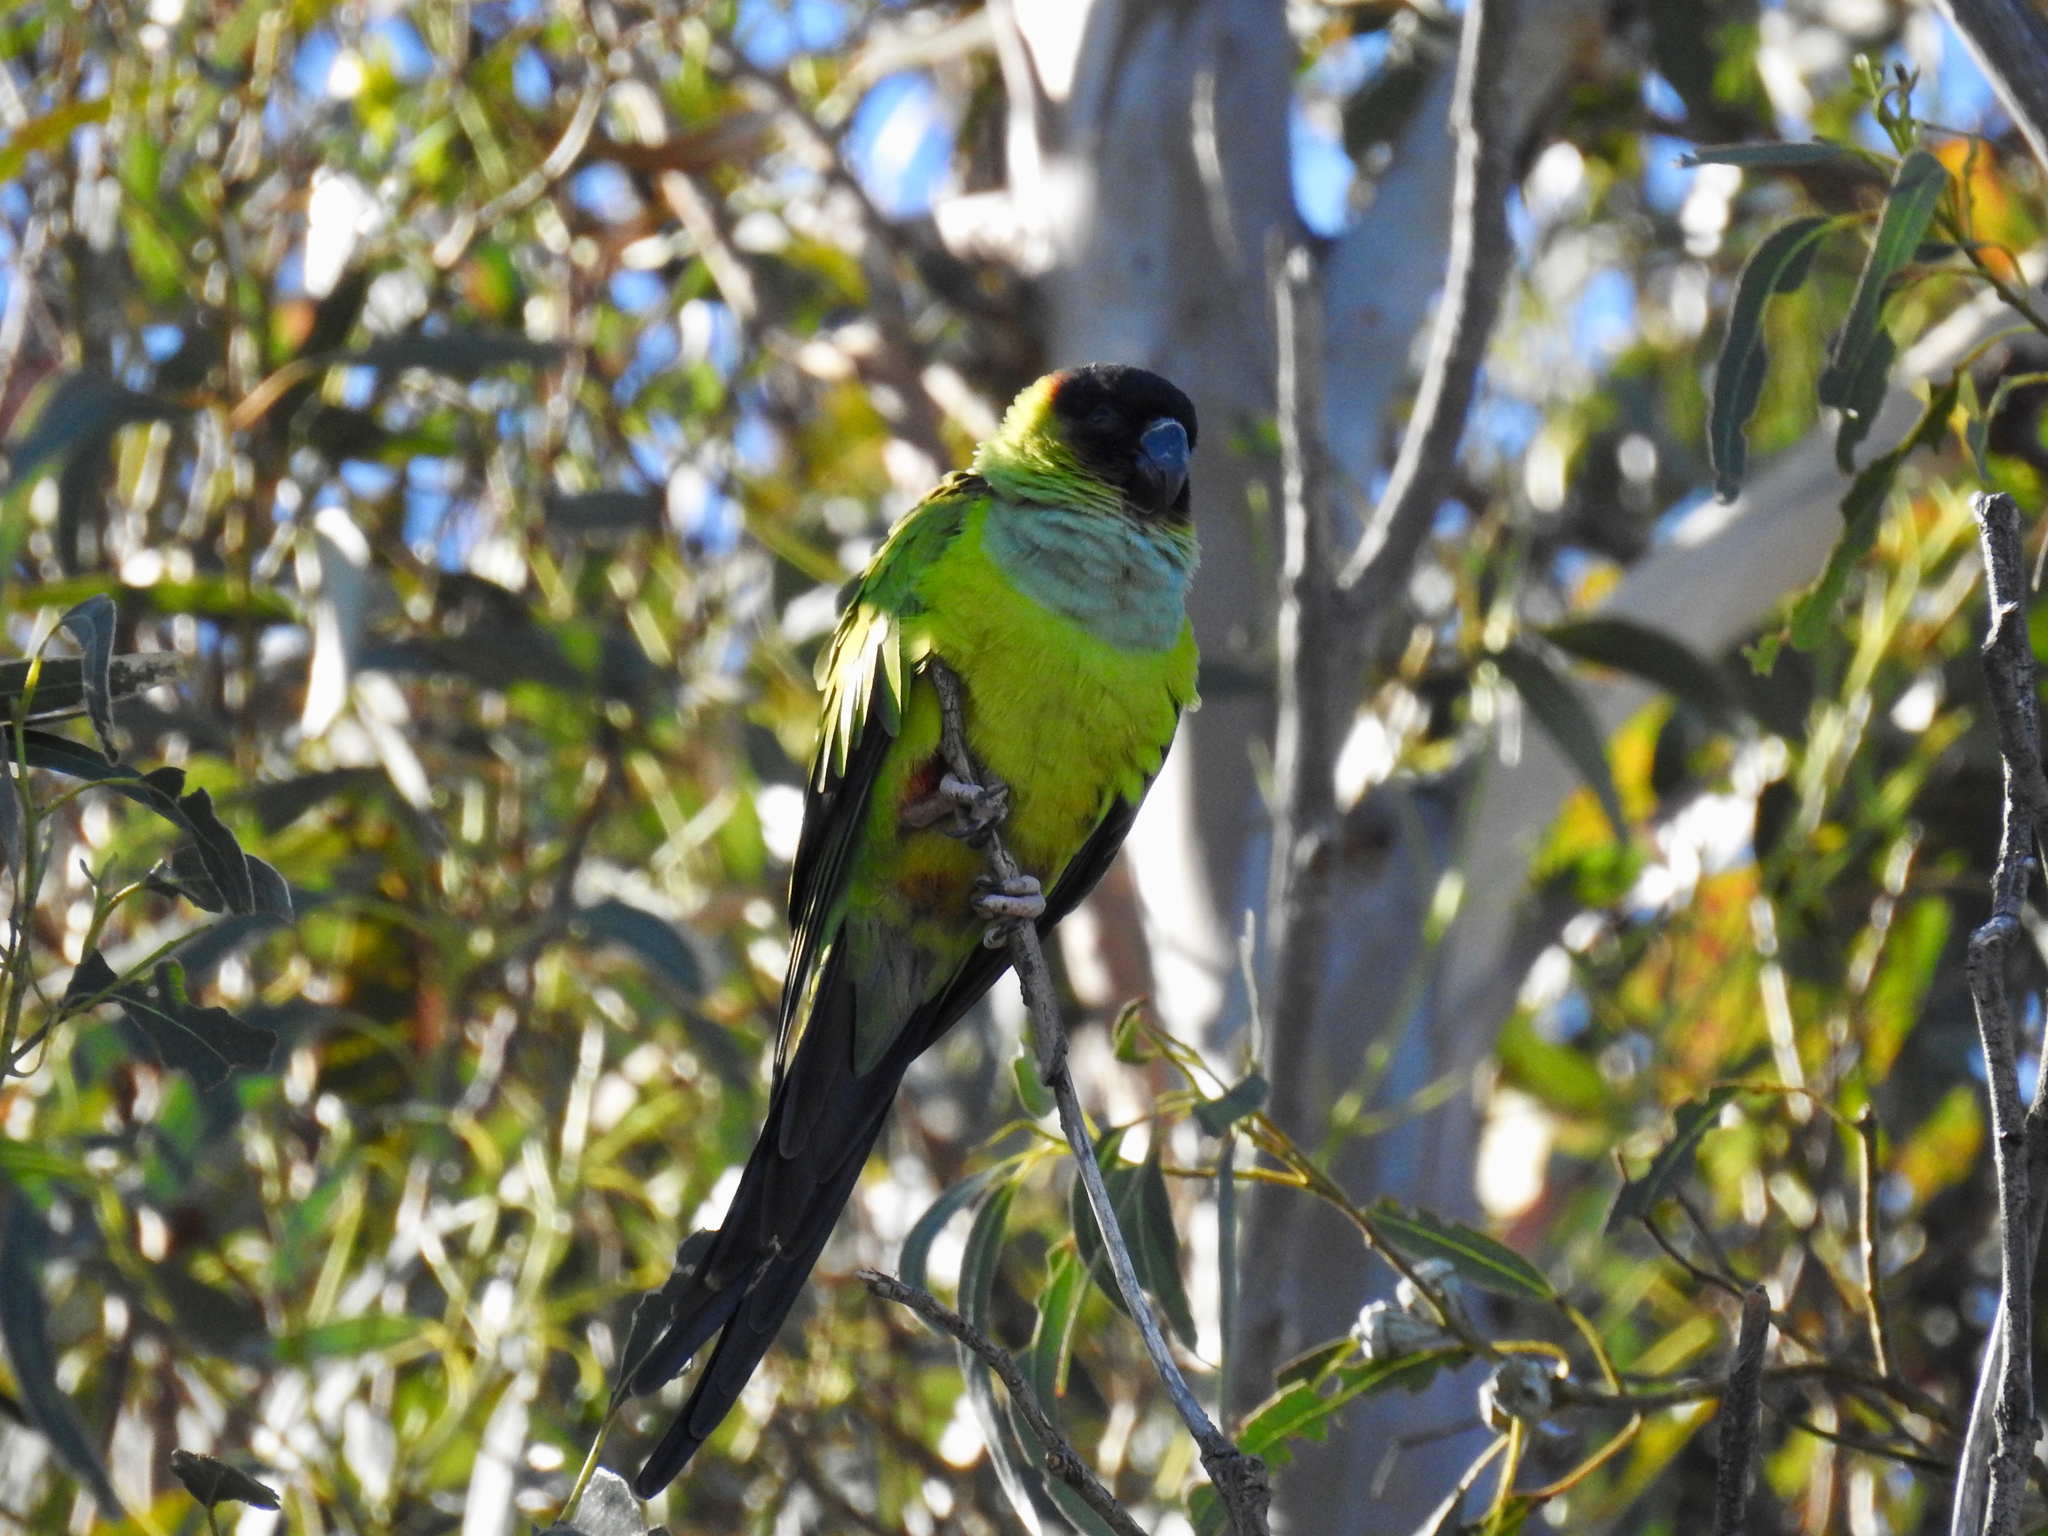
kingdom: Animalia
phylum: Chordata
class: Aves
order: Psittaciformes
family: Psittacidae
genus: Nandayus
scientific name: Nandayus nenday
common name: Nanday parakeet
